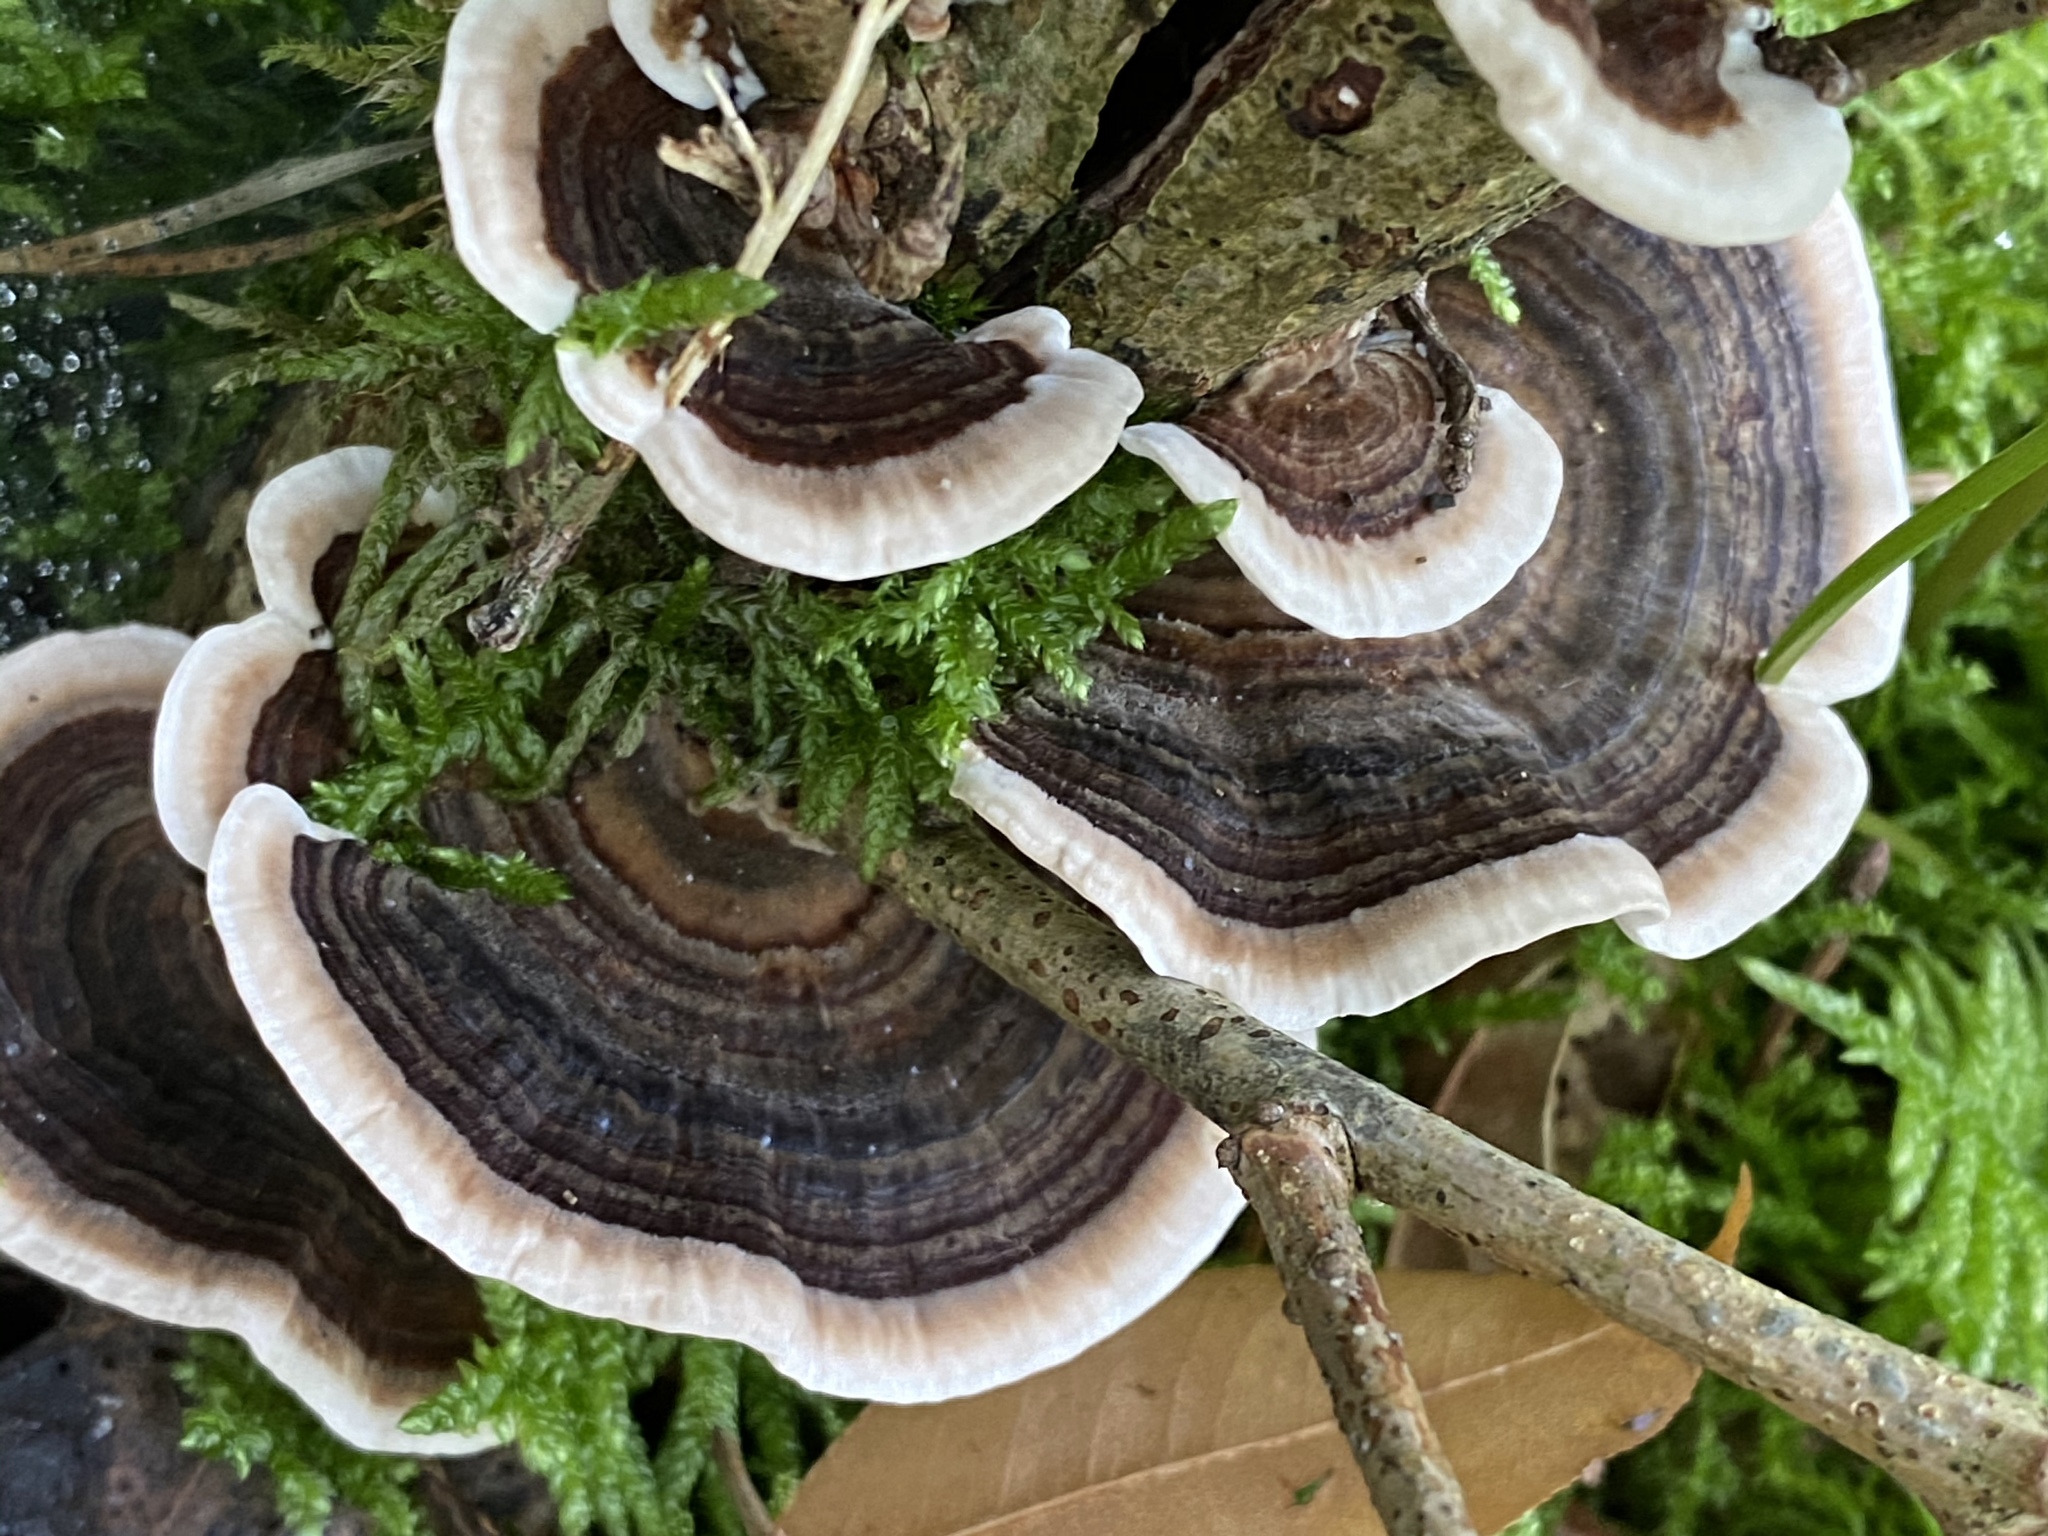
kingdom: Fungi
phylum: Basidiomycota
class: Agaricomycetes
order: Polyporales
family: Polyporaceae
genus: Trametes
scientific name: Trametes versicolor
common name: Turkeytail
